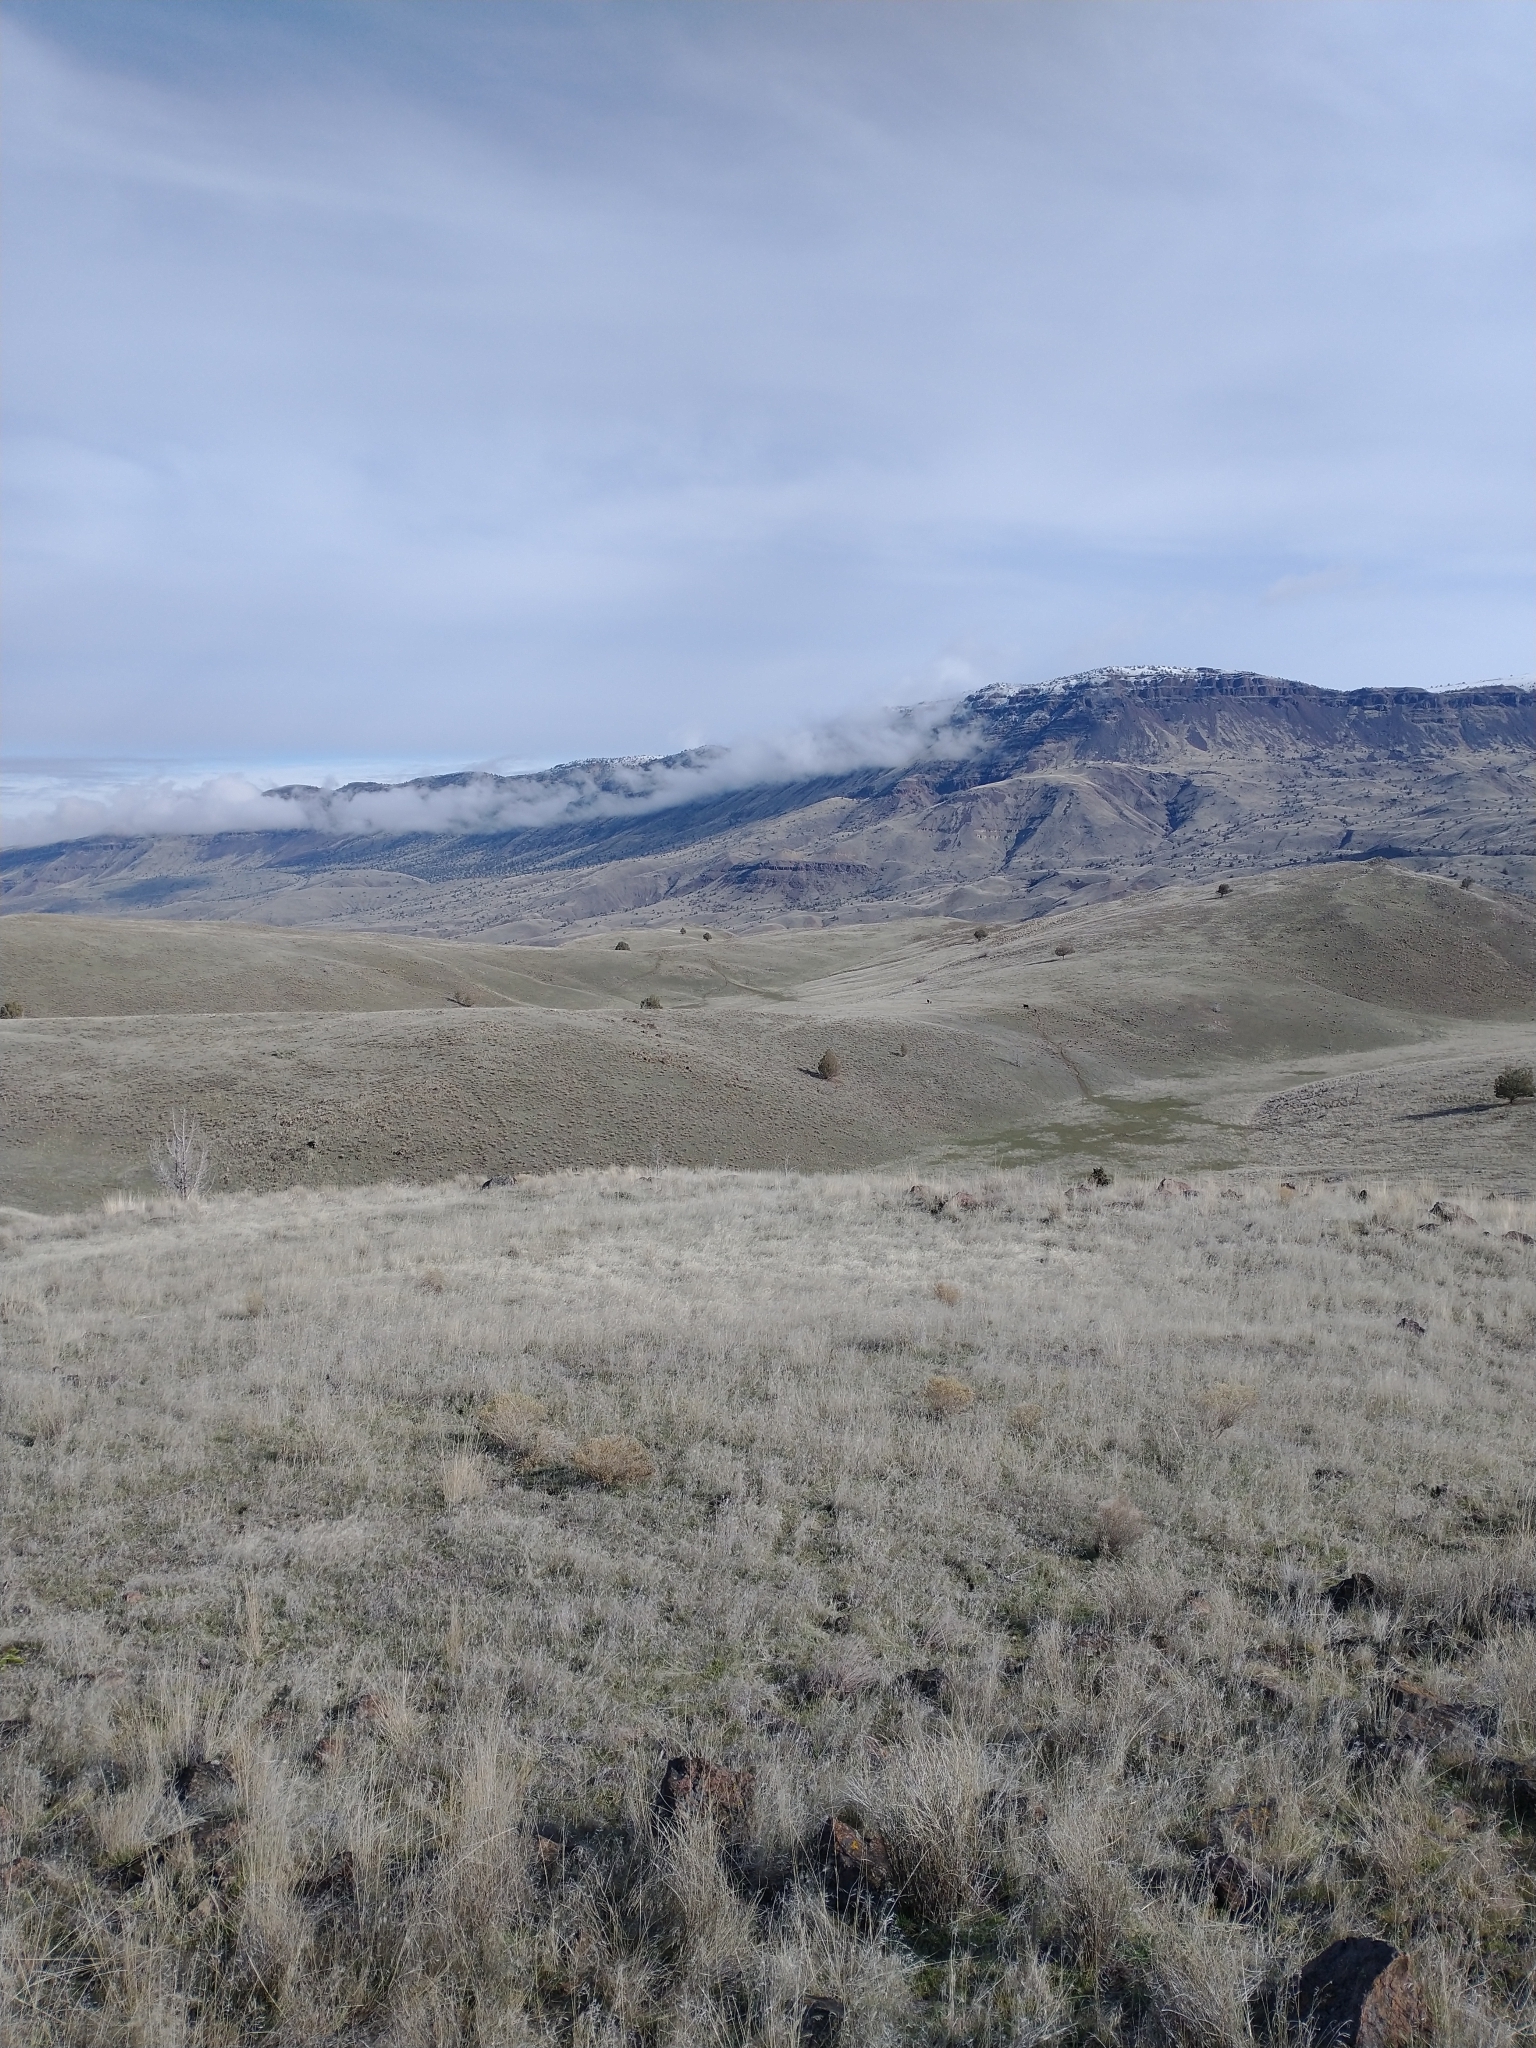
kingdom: Plantae
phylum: Tracheophyta
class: Liliopsida
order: Poales
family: Poaceae
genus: Bromus
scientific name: Bromus tectorum
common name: Cheatgrass
